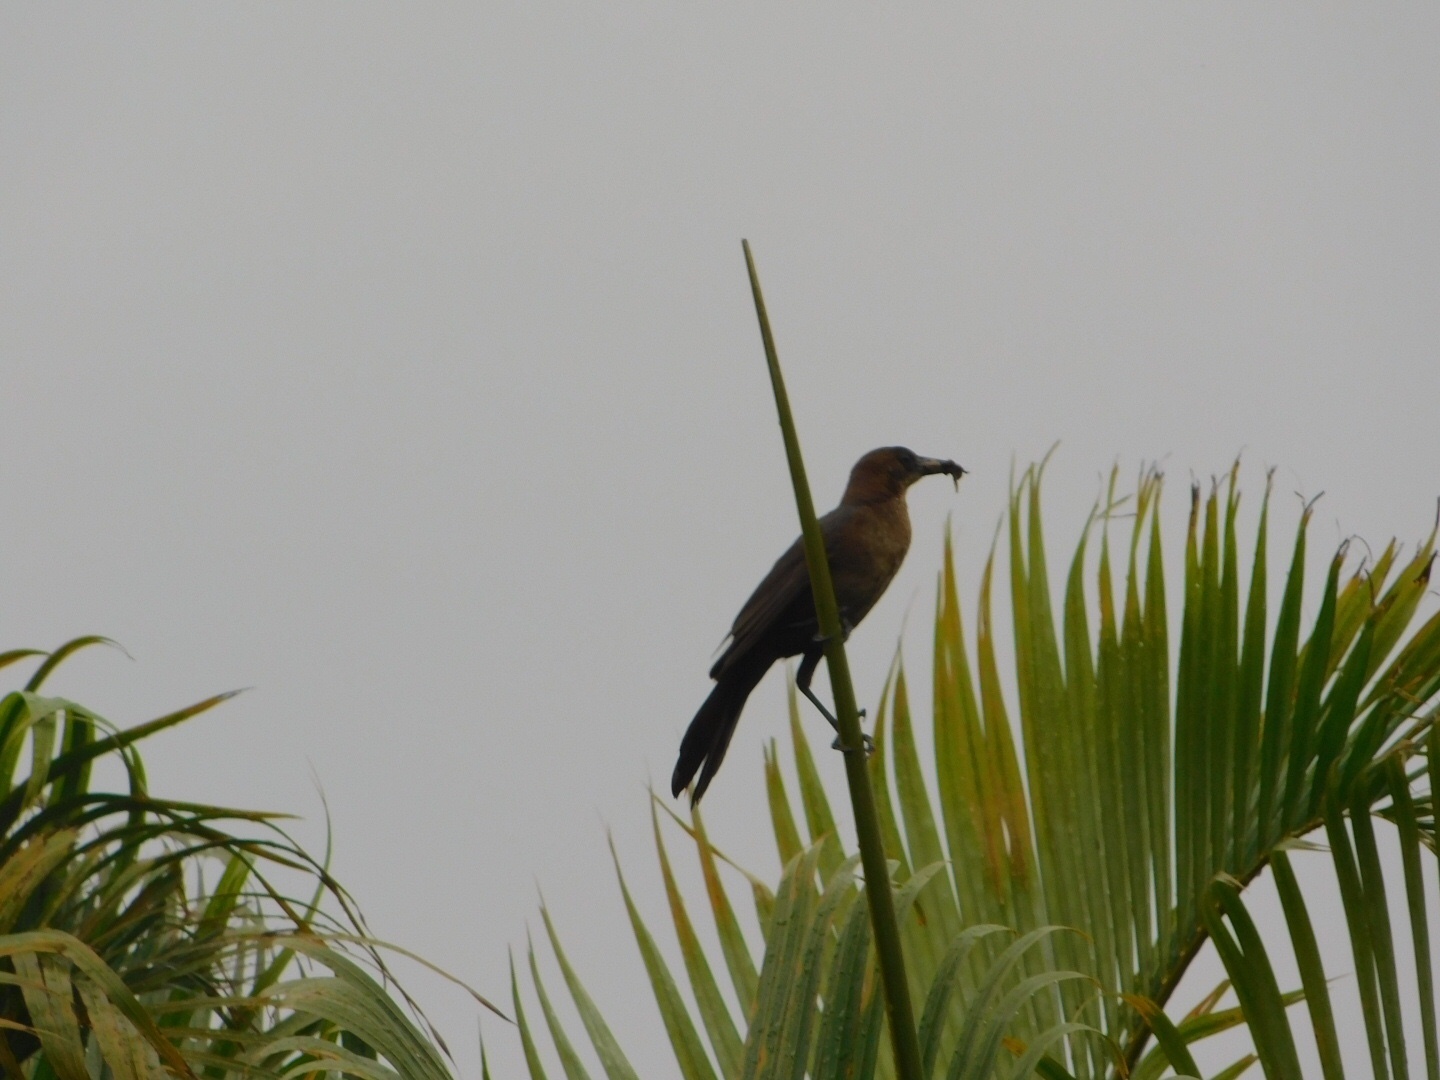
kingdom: Animalia
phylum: Chordata
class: Aves
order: Passeriformes
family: Icteridae
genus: Quiscalus
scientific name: Quiscalus major
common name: Boat-tailed grackle
